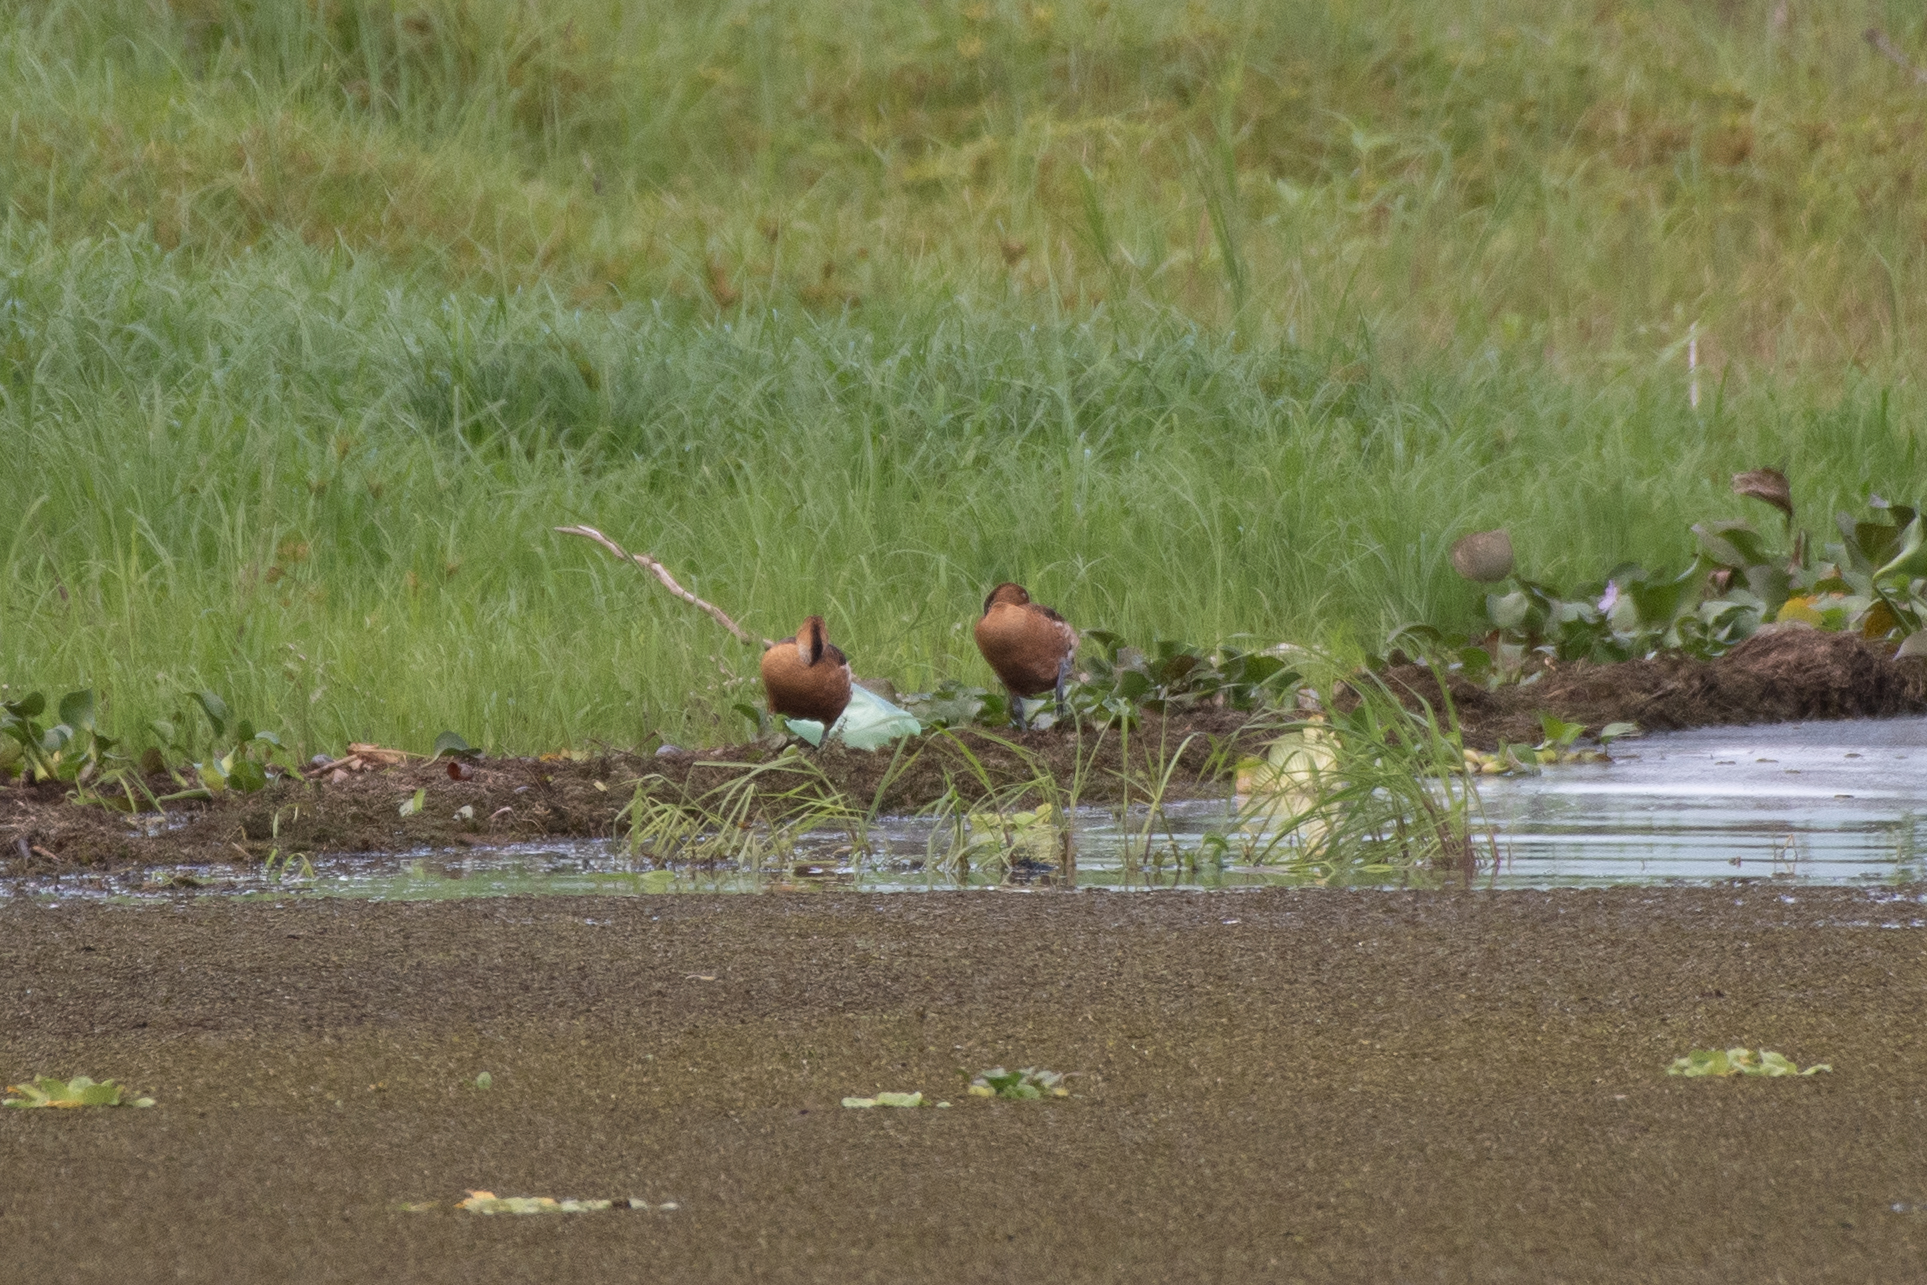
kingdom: Animalia
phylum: Chordata
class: Aves
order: Anseriformes
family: Anatidae
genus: Dendrocygna
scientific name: Dendrocygna bicolor
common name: Fulvous whistling duck
